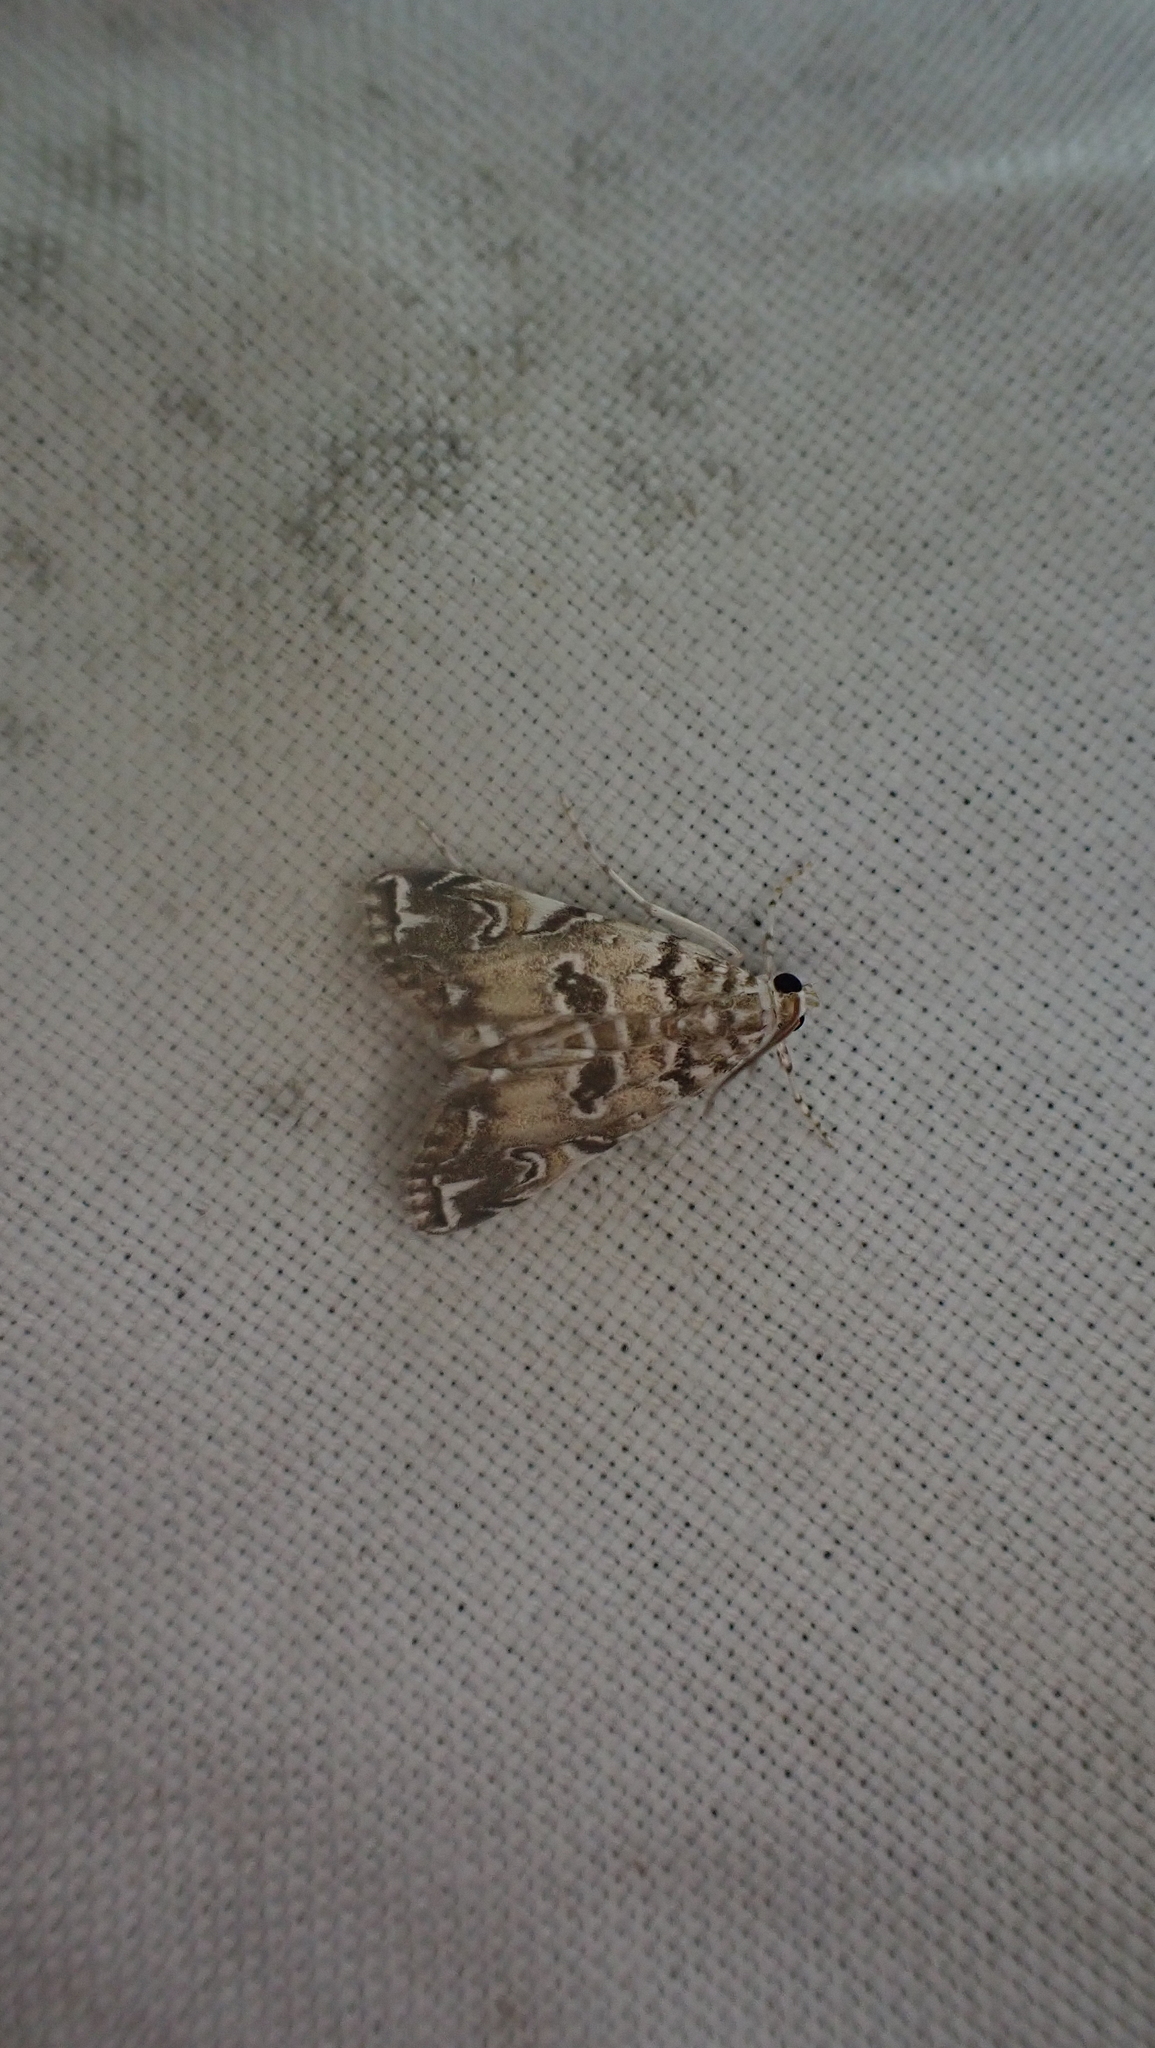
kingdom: Animalia
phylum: Arthropoda
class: Insecta
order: Lepidoptera
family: Crambidae
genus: Elophila
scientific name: Elophila gyralis
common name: Waterlily borer moth
